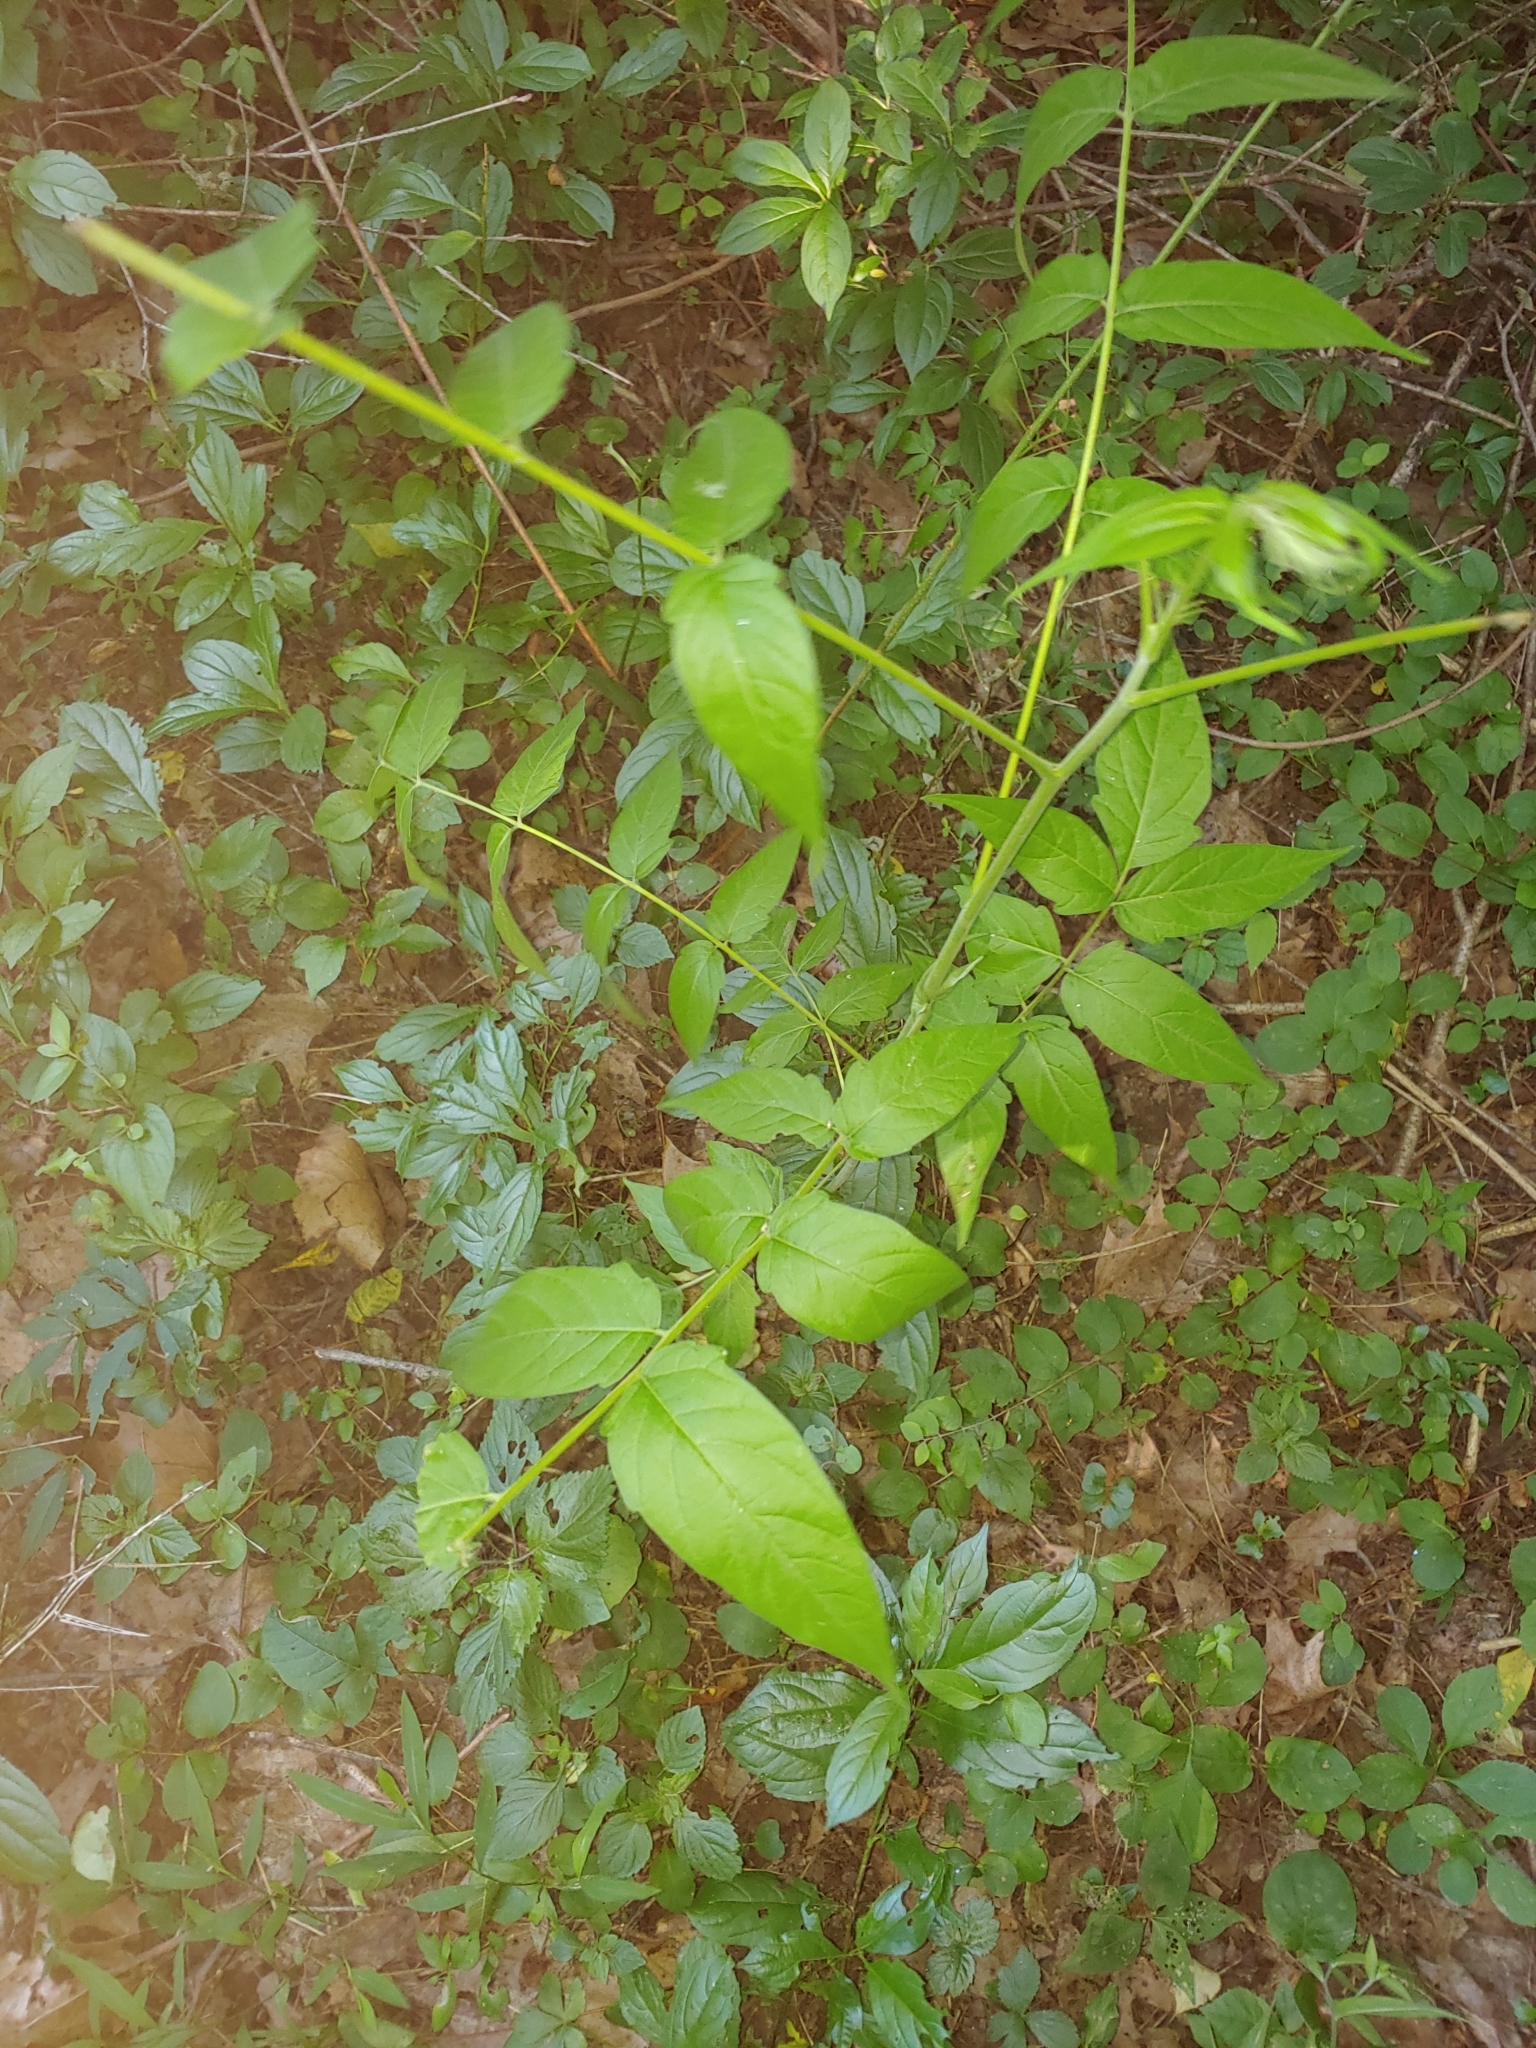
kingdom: Plantae
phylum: Tracheophyta
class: Magnoliopsida
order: Sapindales
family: Simaroubaceae
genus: Ailanthus
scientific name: Ailanthus altissima
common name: Tree-of-heaven
